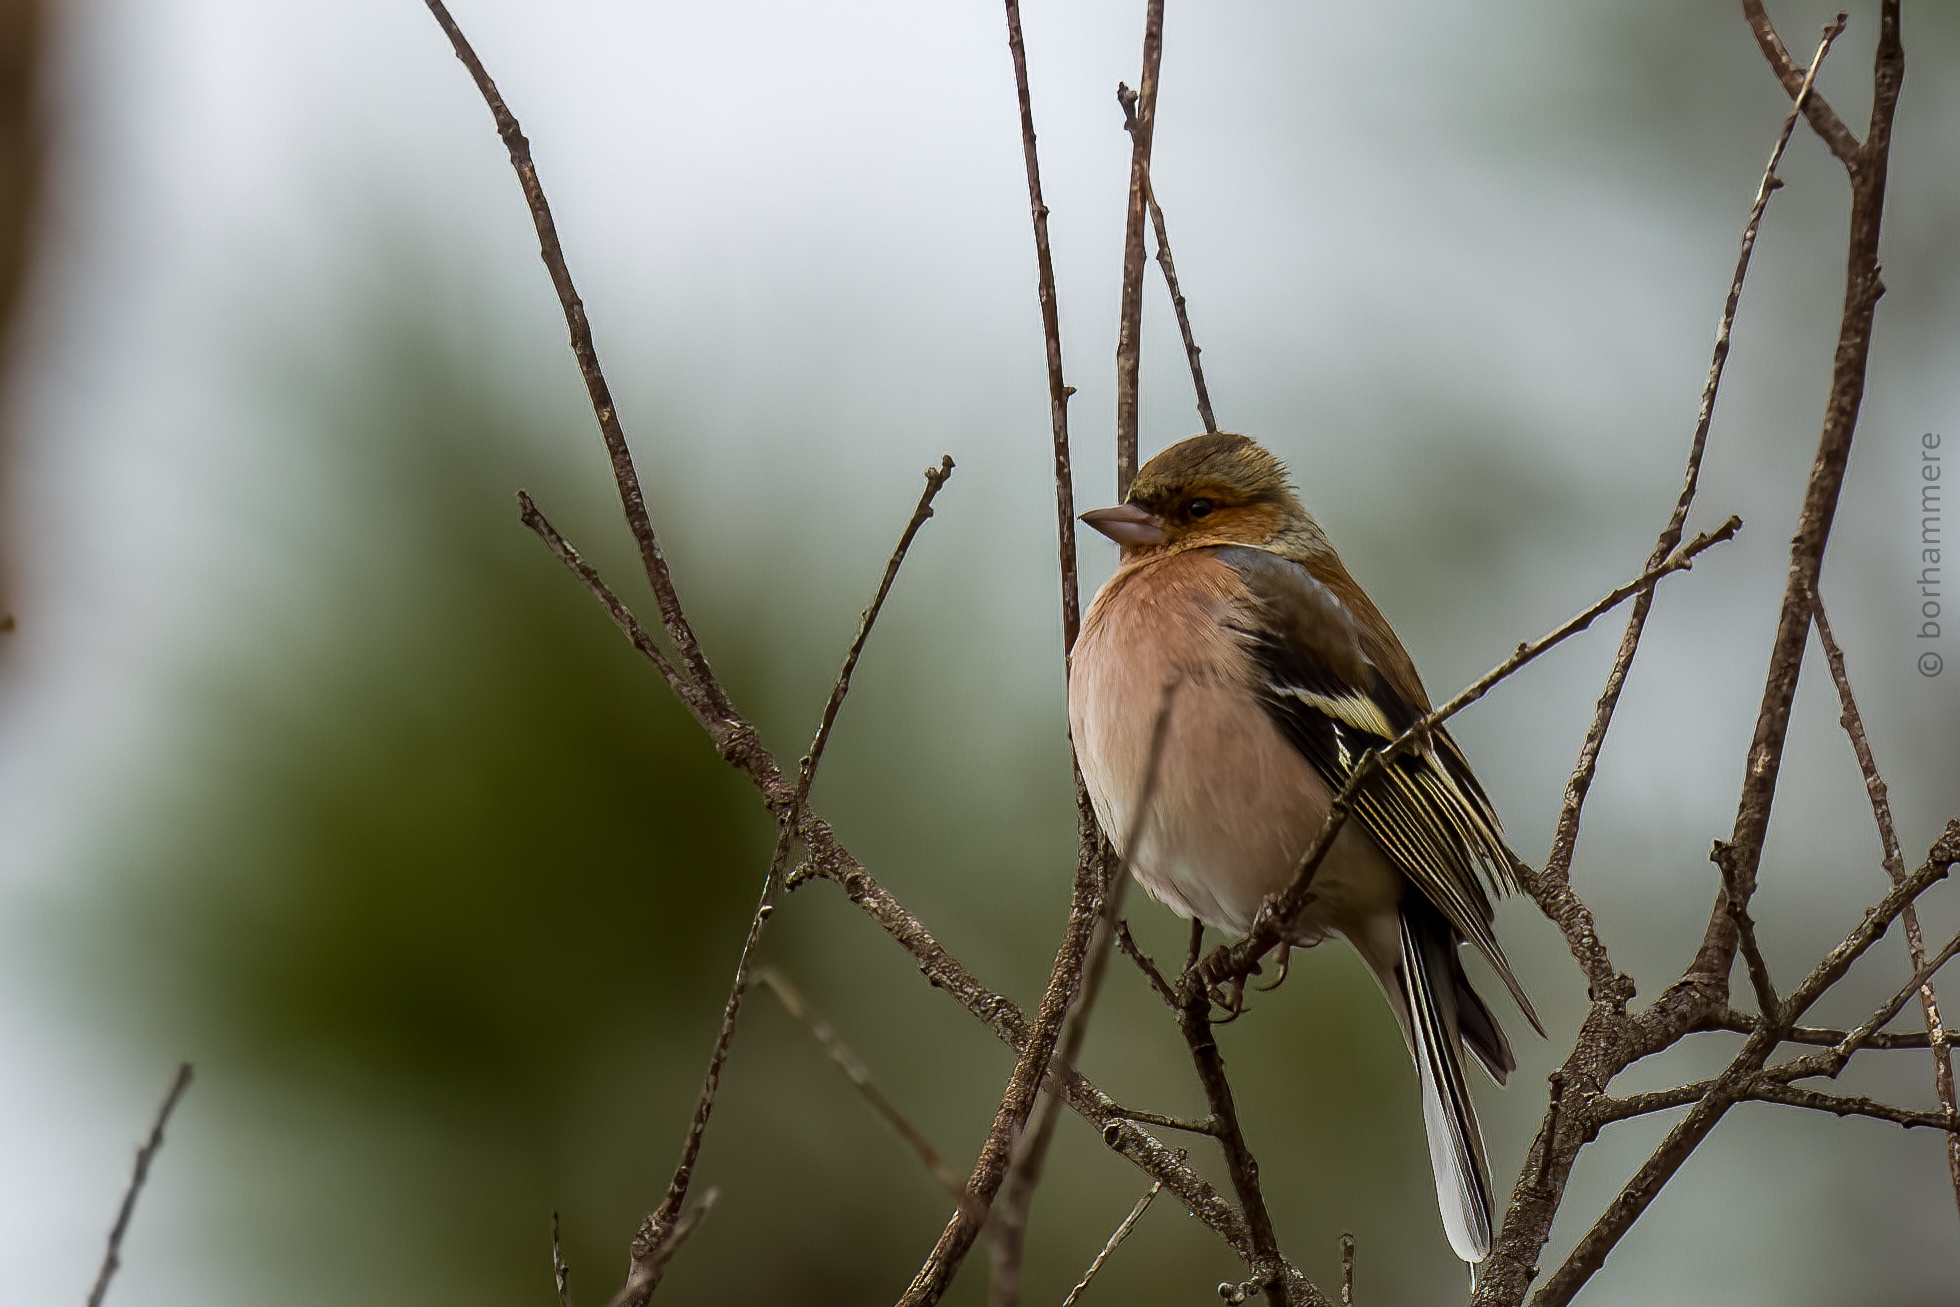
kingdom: Animalia
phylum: Chordata
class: Aves
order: Passeriformes
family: Fringillidae
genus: Fringilla
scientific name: Fringilla coelebs
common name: Common chaffinch
